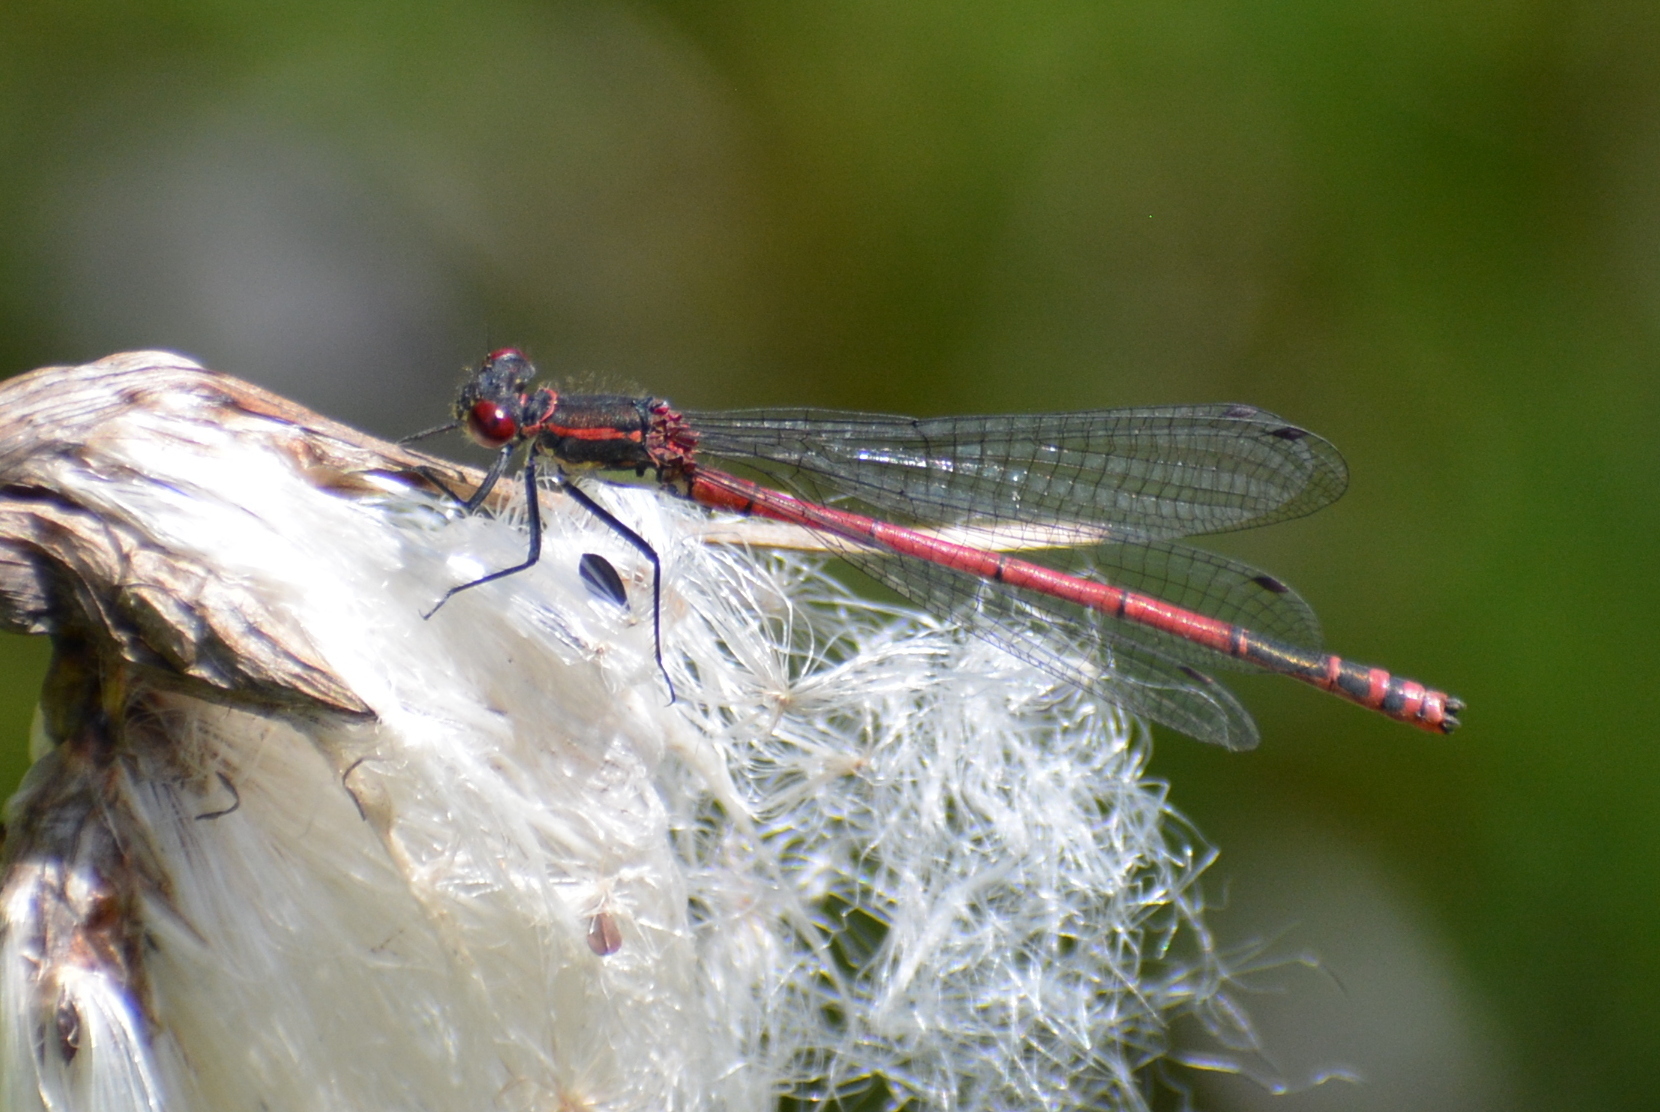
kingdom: Animalia
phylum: Arthropoda
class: Insecta
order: Odonata
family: Coenagrionidae
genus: Pyrrhosoma
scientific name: Pyrrhosoma nymphula
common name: Large red damsel
